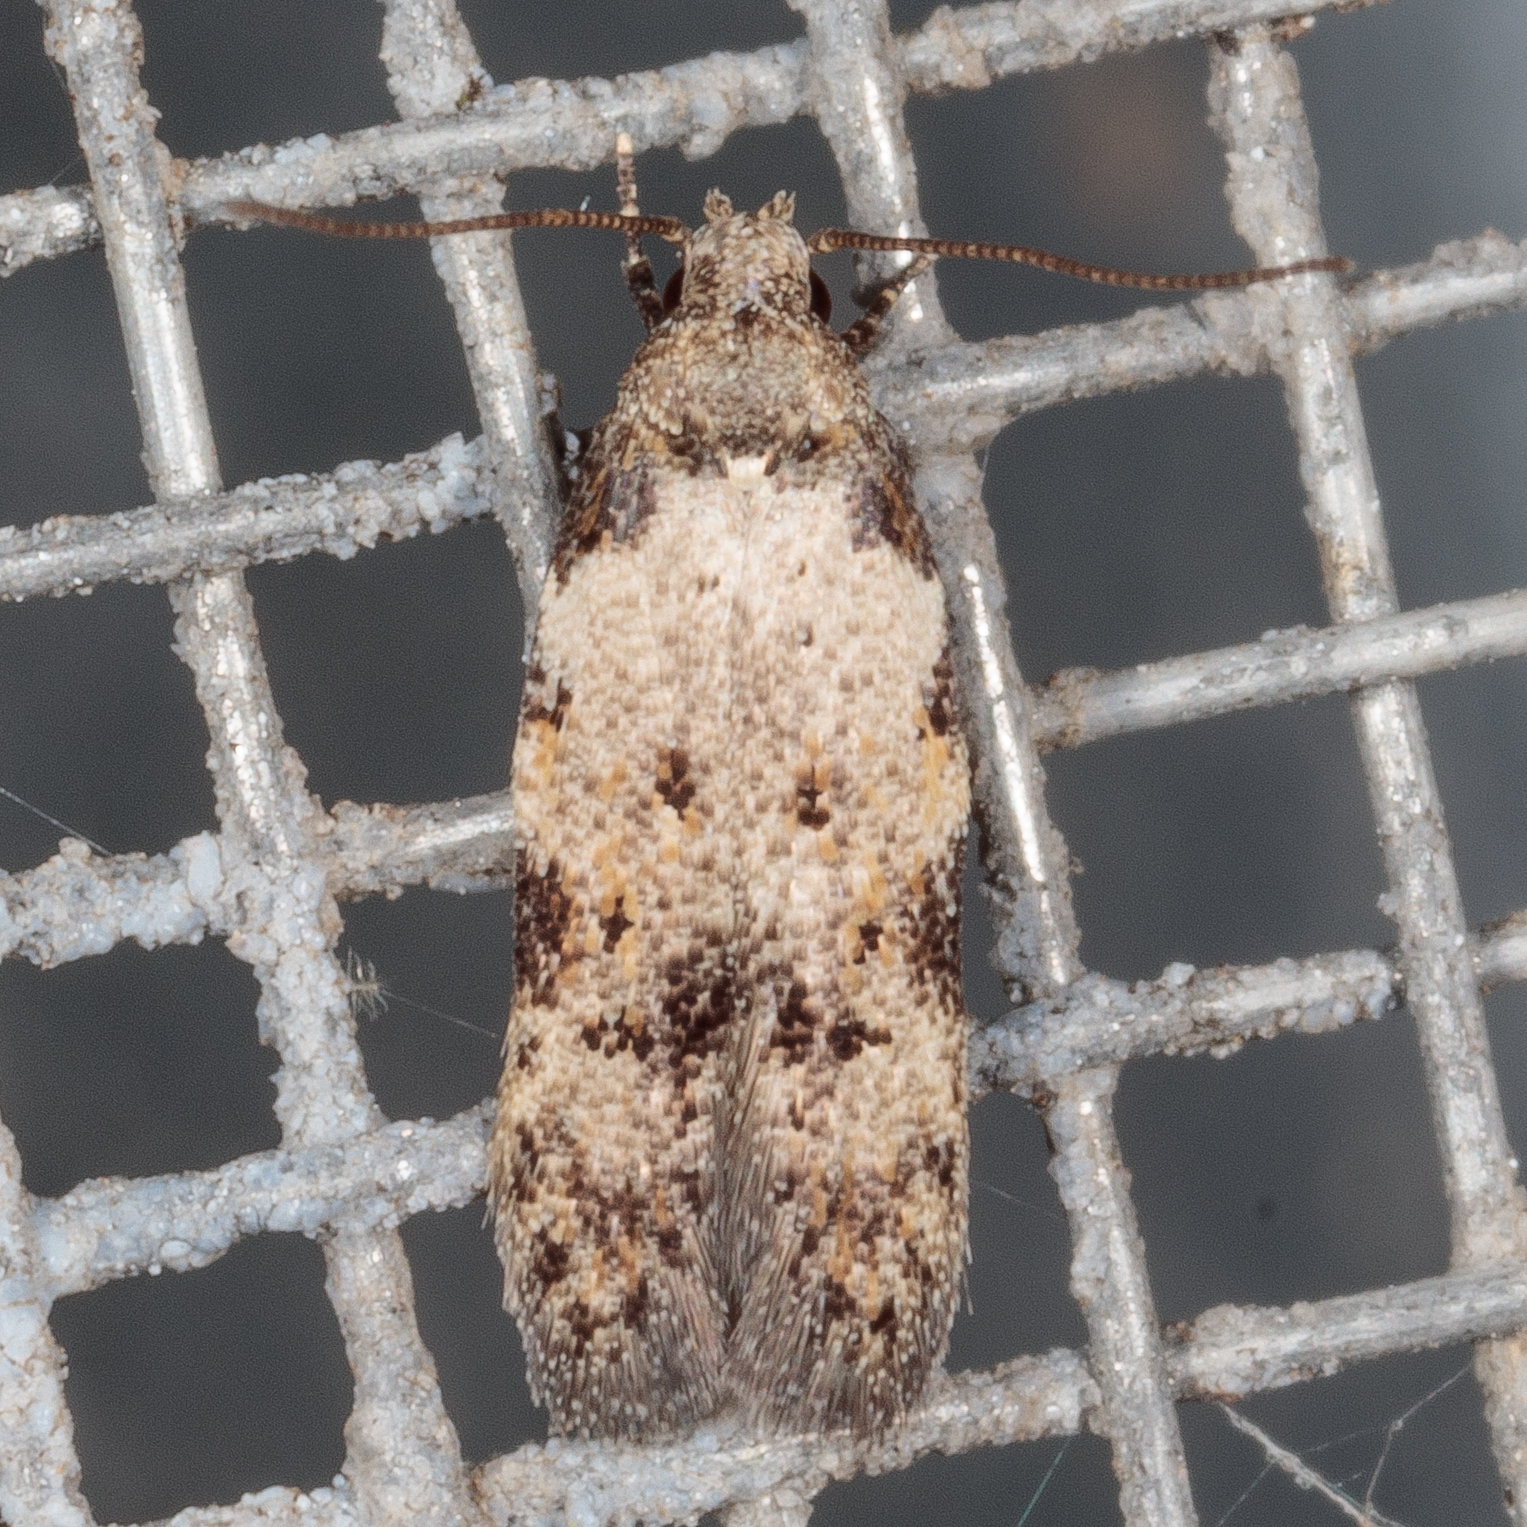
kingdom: Animalia
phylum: Arthropoda
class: Insecta
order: Lepidoptera
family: Autostichidae
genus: Taygete
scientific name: Taygete attributella
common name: Triangle-marked twirler moth
